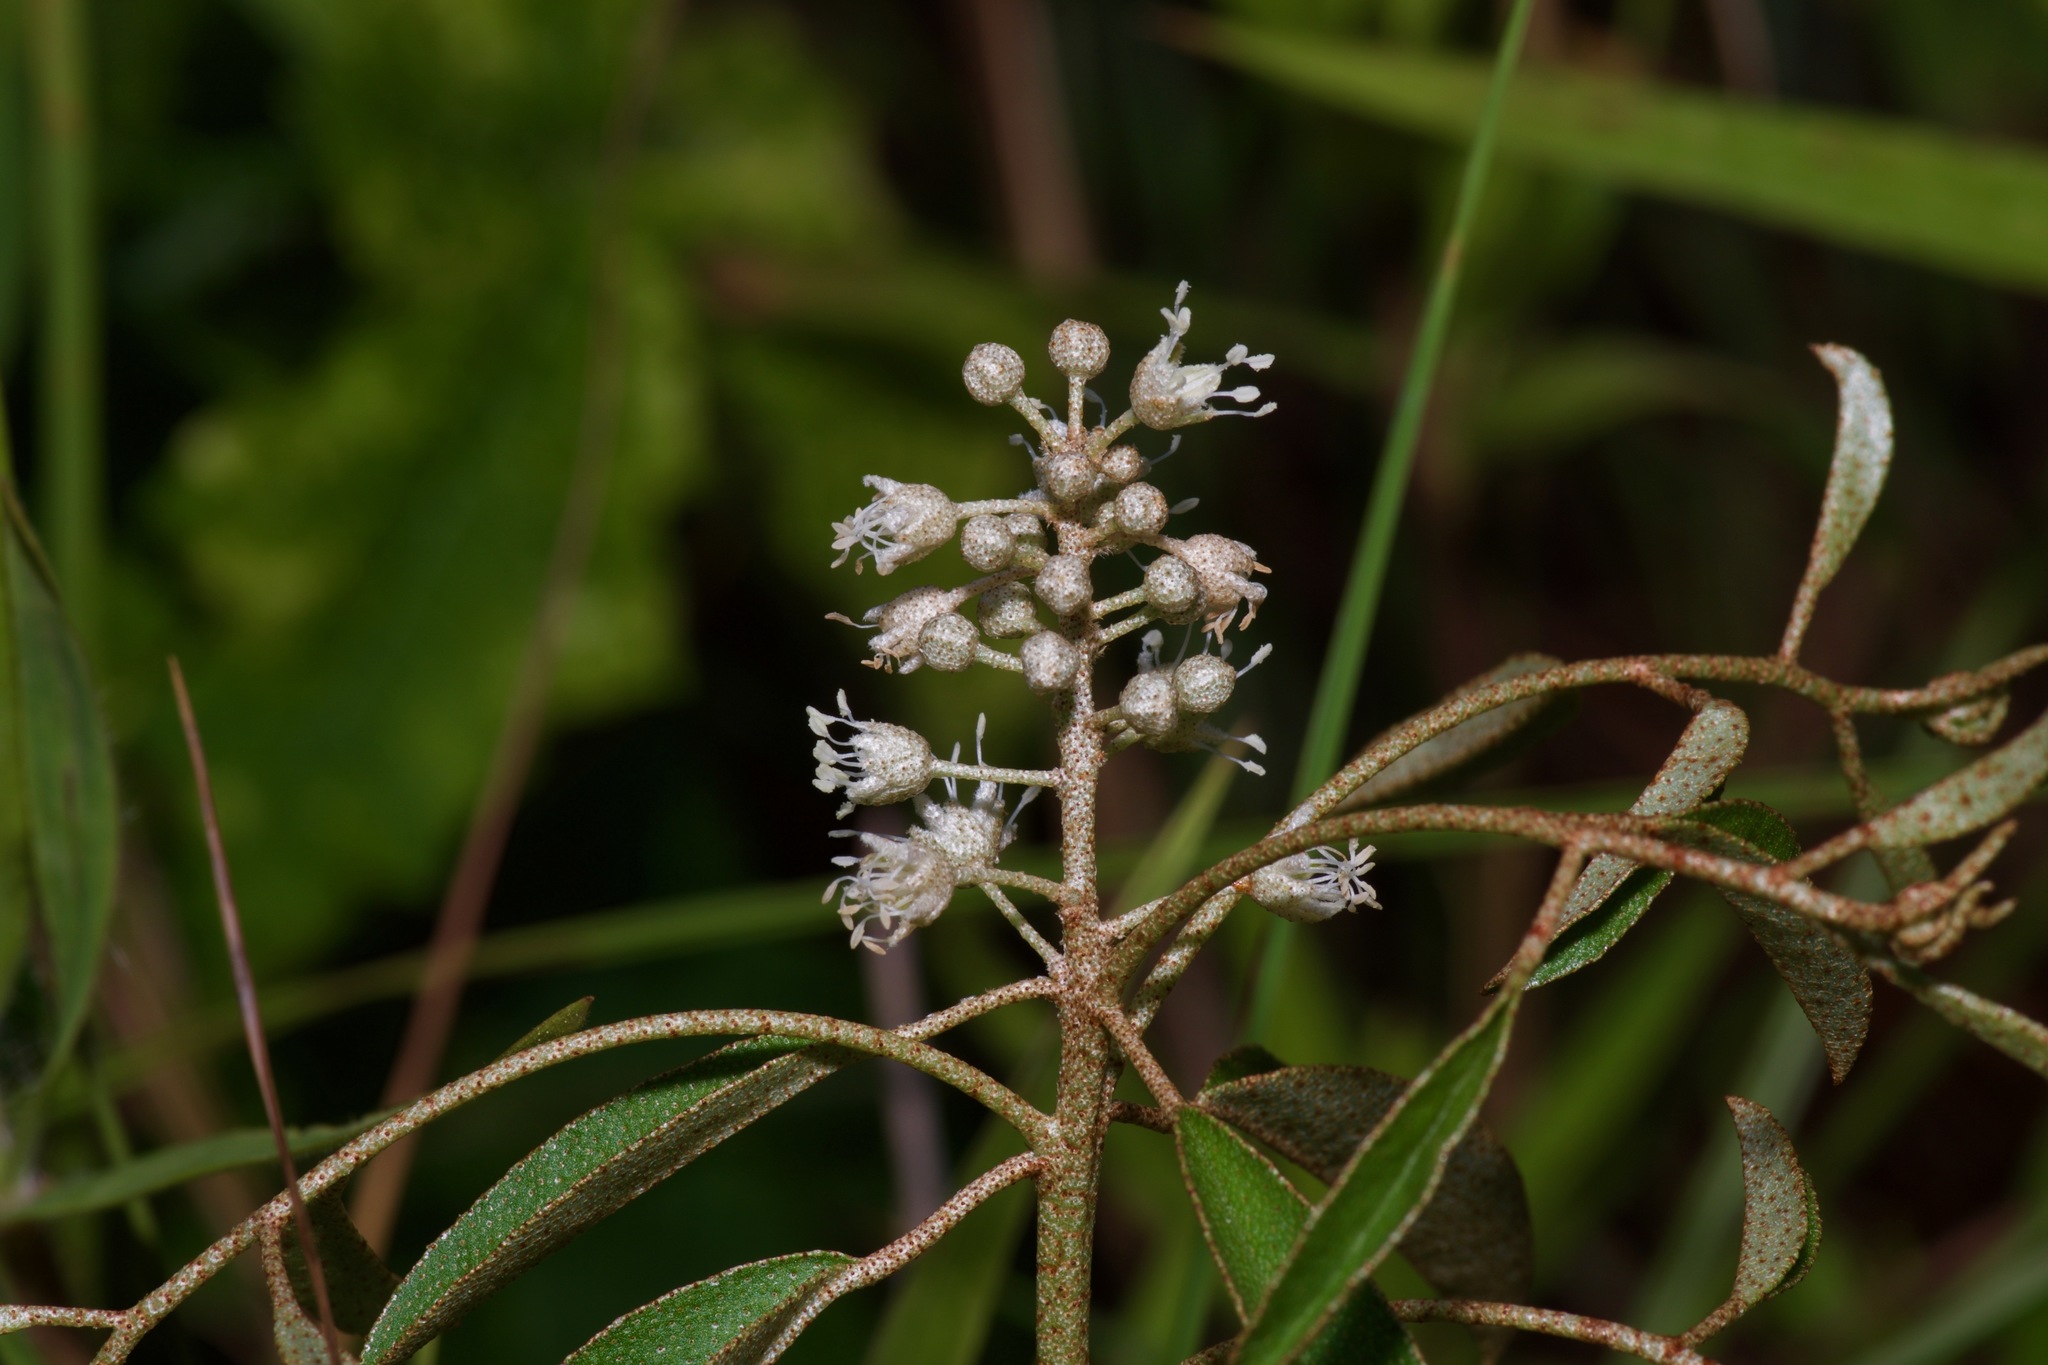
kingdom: Plantae
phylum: Tracheophyta
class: Magnoliopsida
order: Malpighiales
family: Euphorbiaceae
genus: Croton
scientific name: Croton argyranthemus
